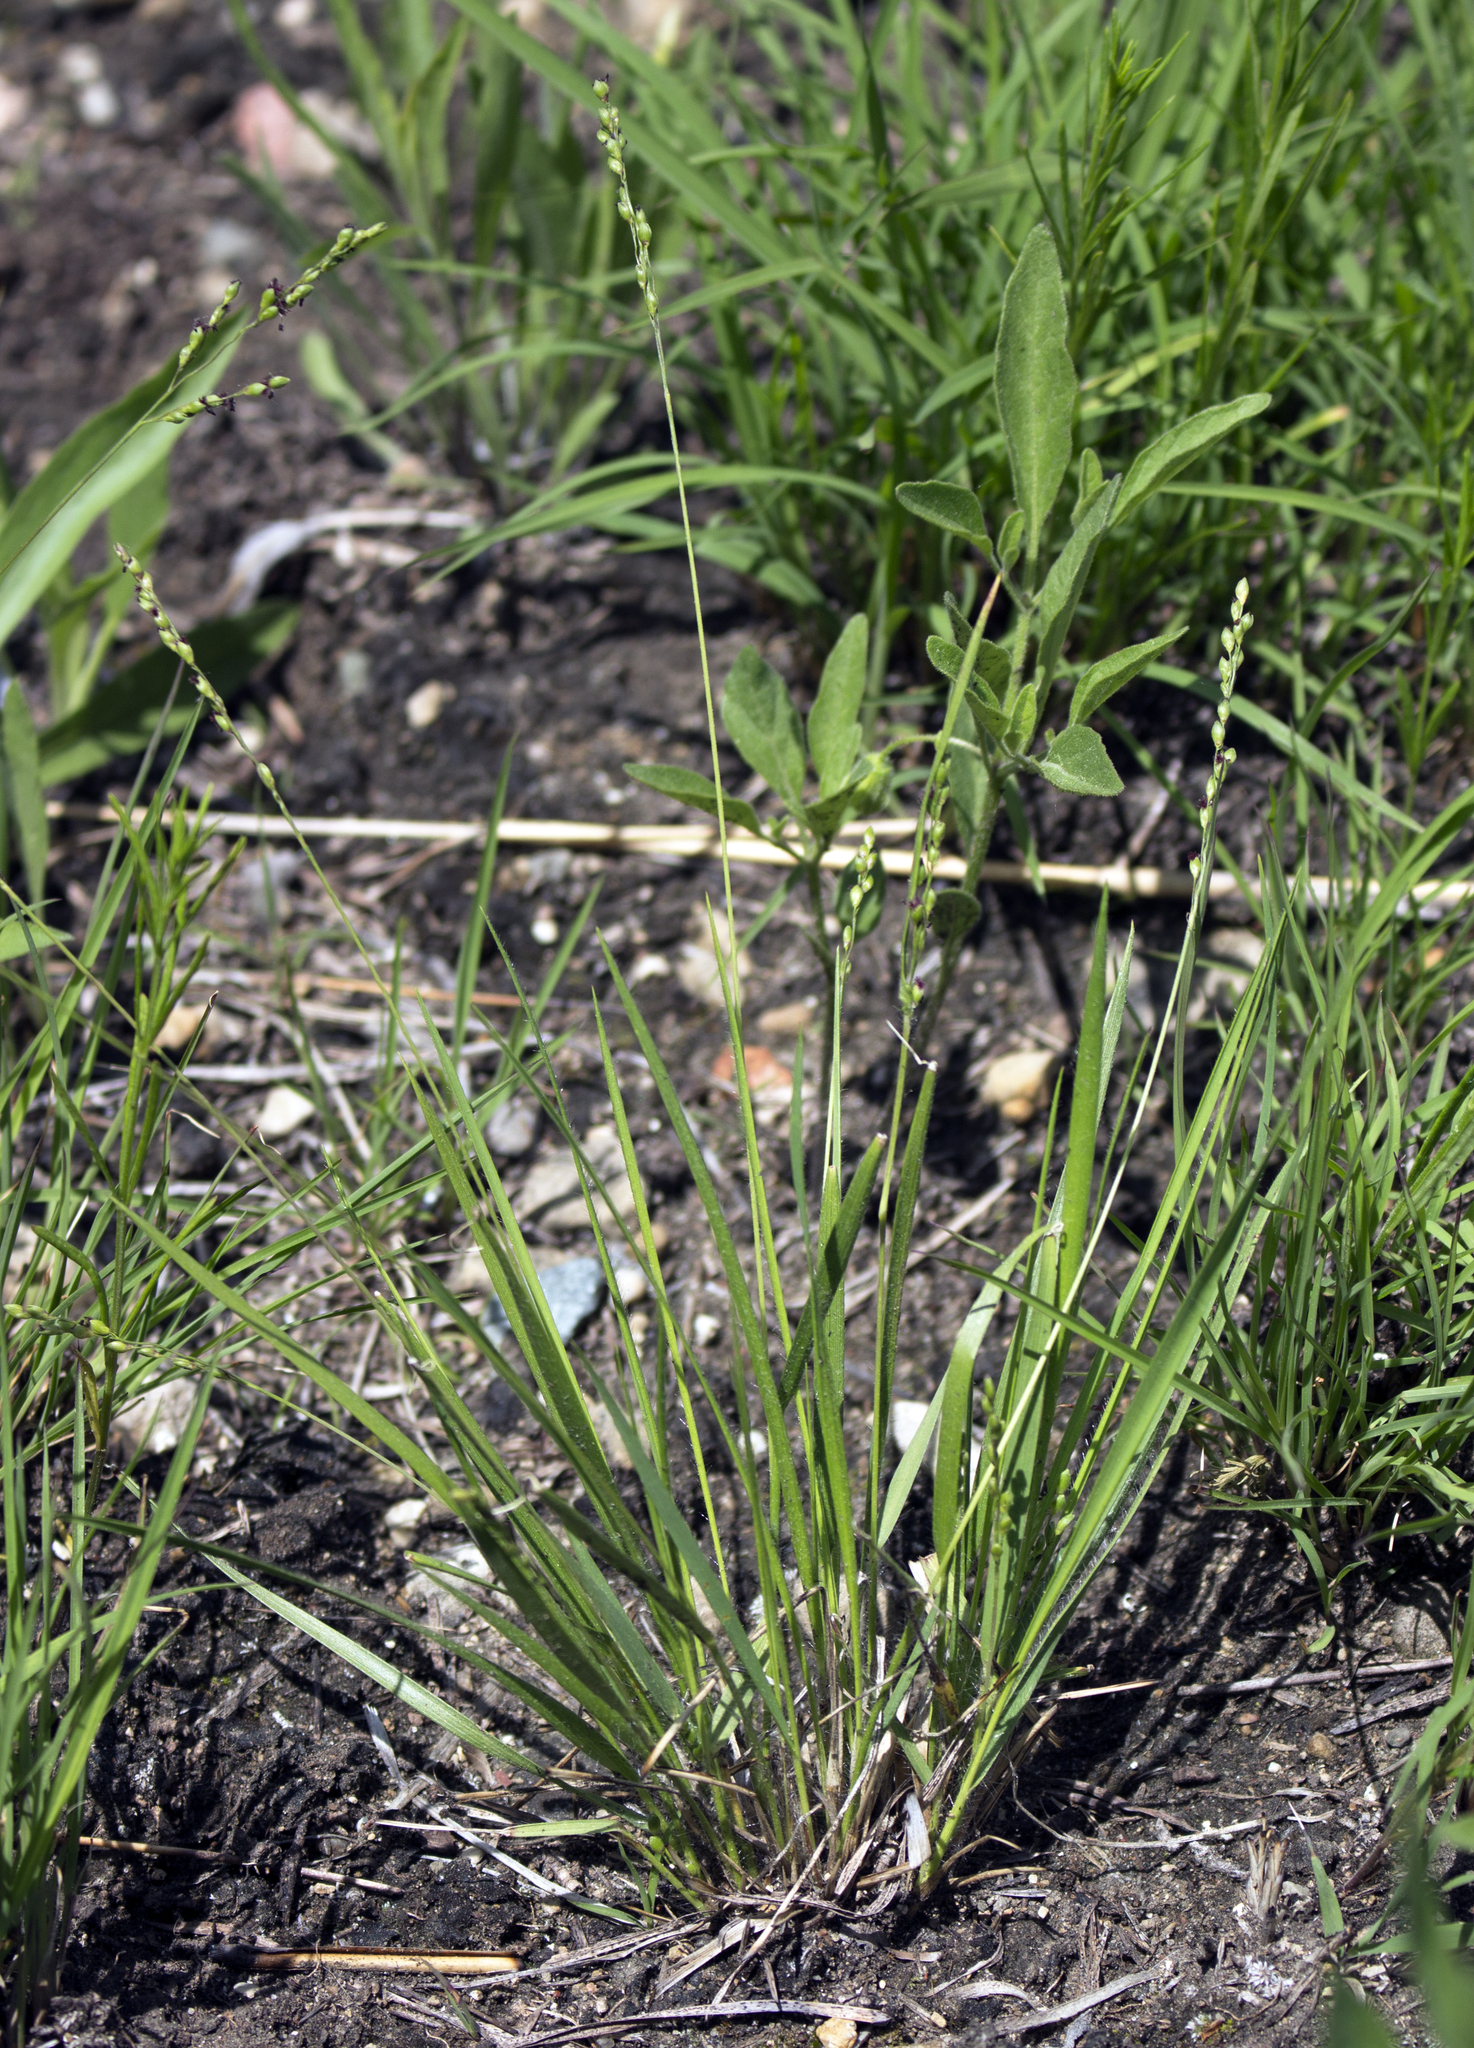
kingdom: Plantae
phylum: Tracheophyta
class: Liliopsida
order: Poales
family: Poaceae
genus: Dichanthelium
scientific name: Dichanthelium linearifolium
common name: Linear-leaved panicgrass
